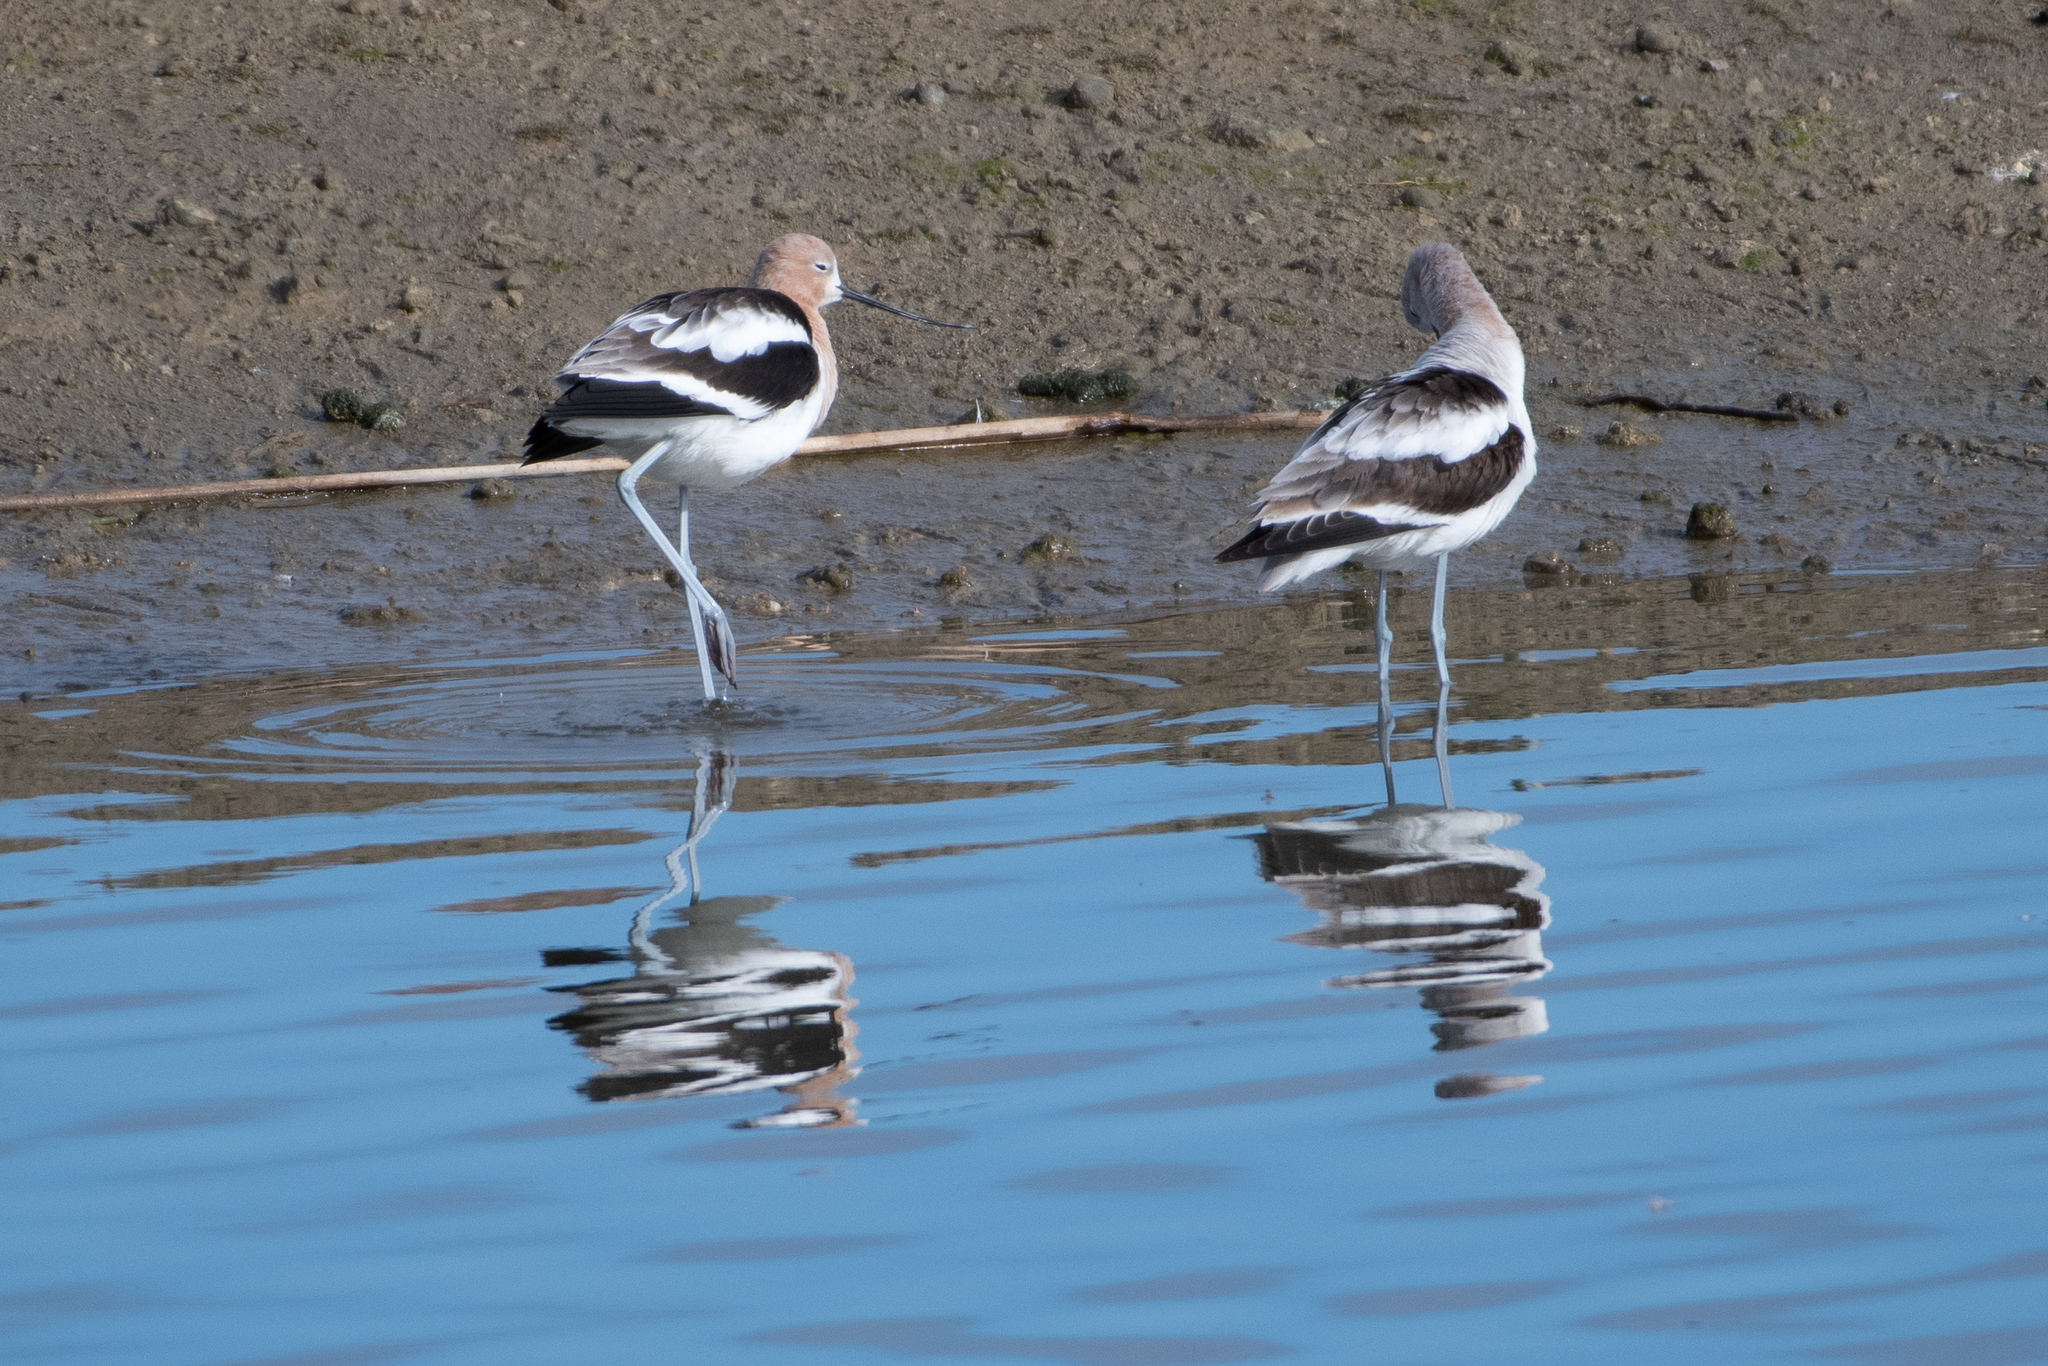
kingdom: Animalia
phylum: Chordata
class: Aves
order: Charadriiformes
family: Recurvirostridae
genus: Recurvirostra
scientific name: Recurvirostra americana
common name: American avocet
